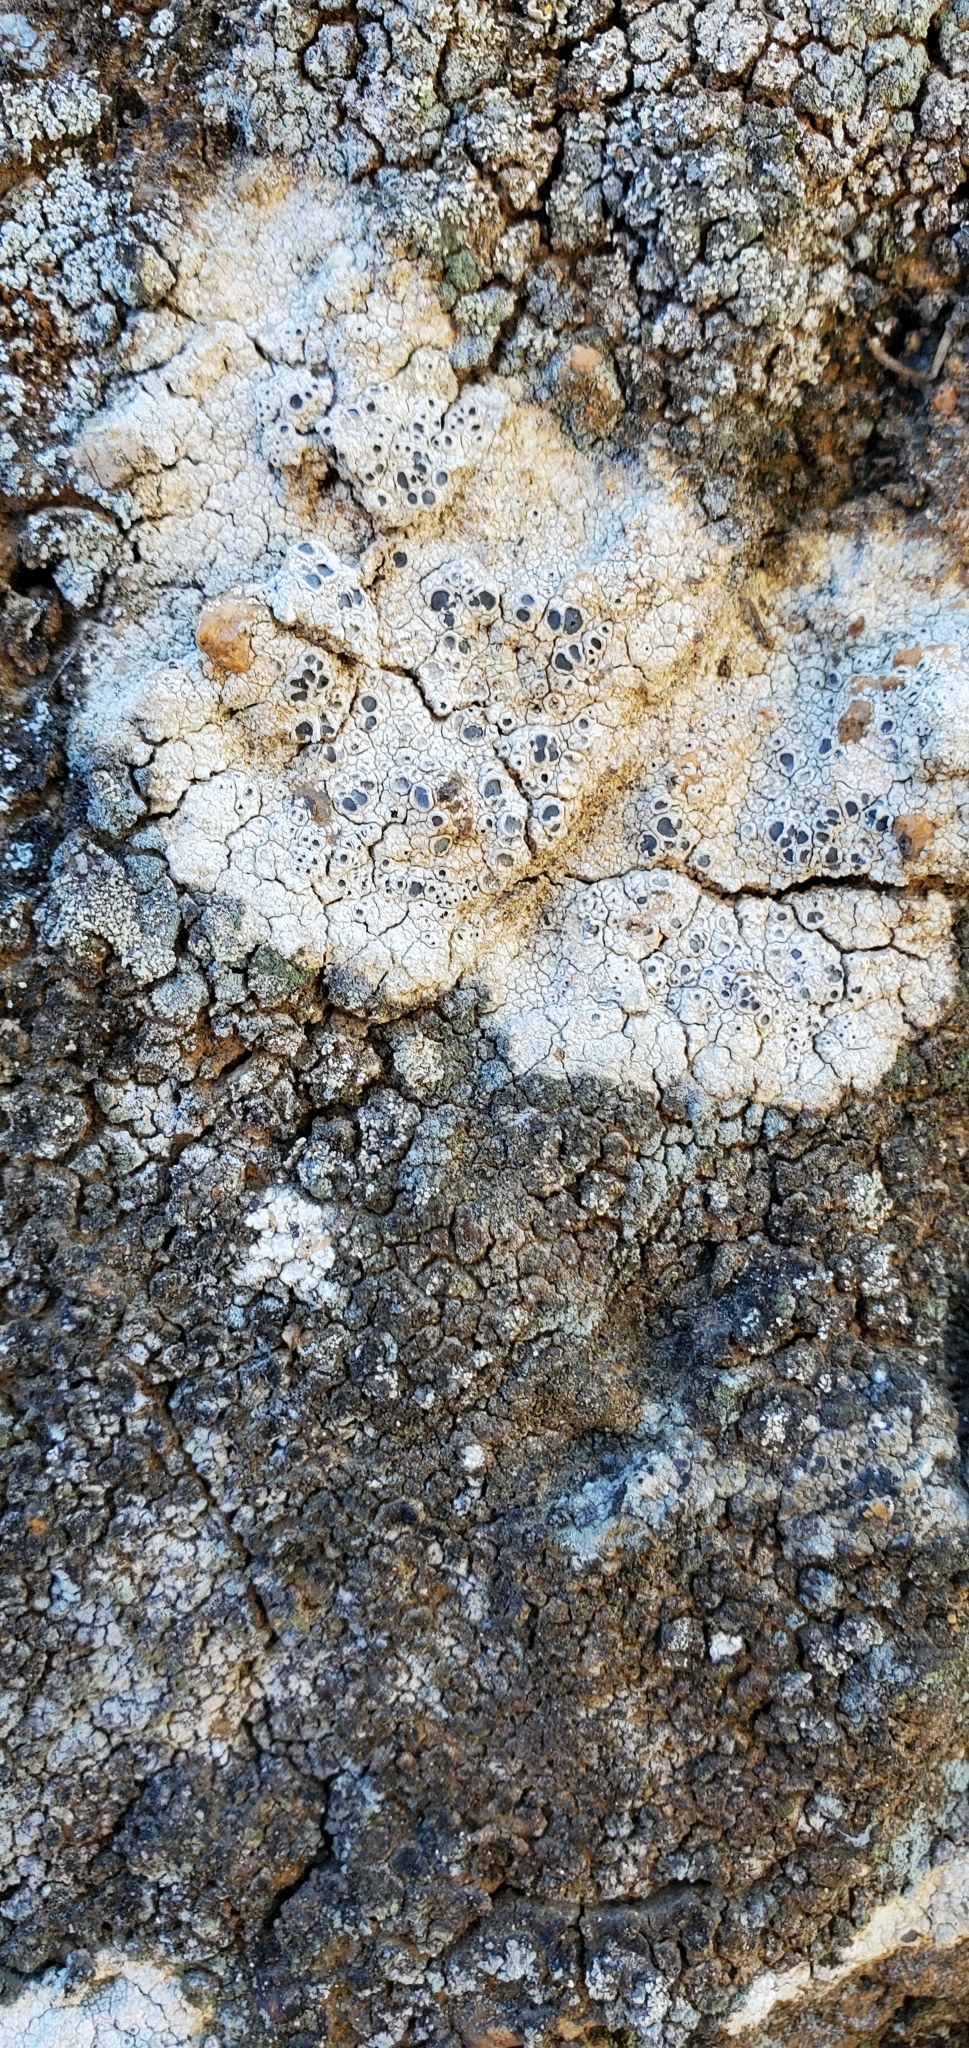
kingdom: Fungi
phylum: Ascomycota
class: Lecanoromycetes
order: Ostropales
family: Graphidaceae
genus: Diploschistes
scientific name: Diploschistes muscorum
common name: Cowpie lichen
